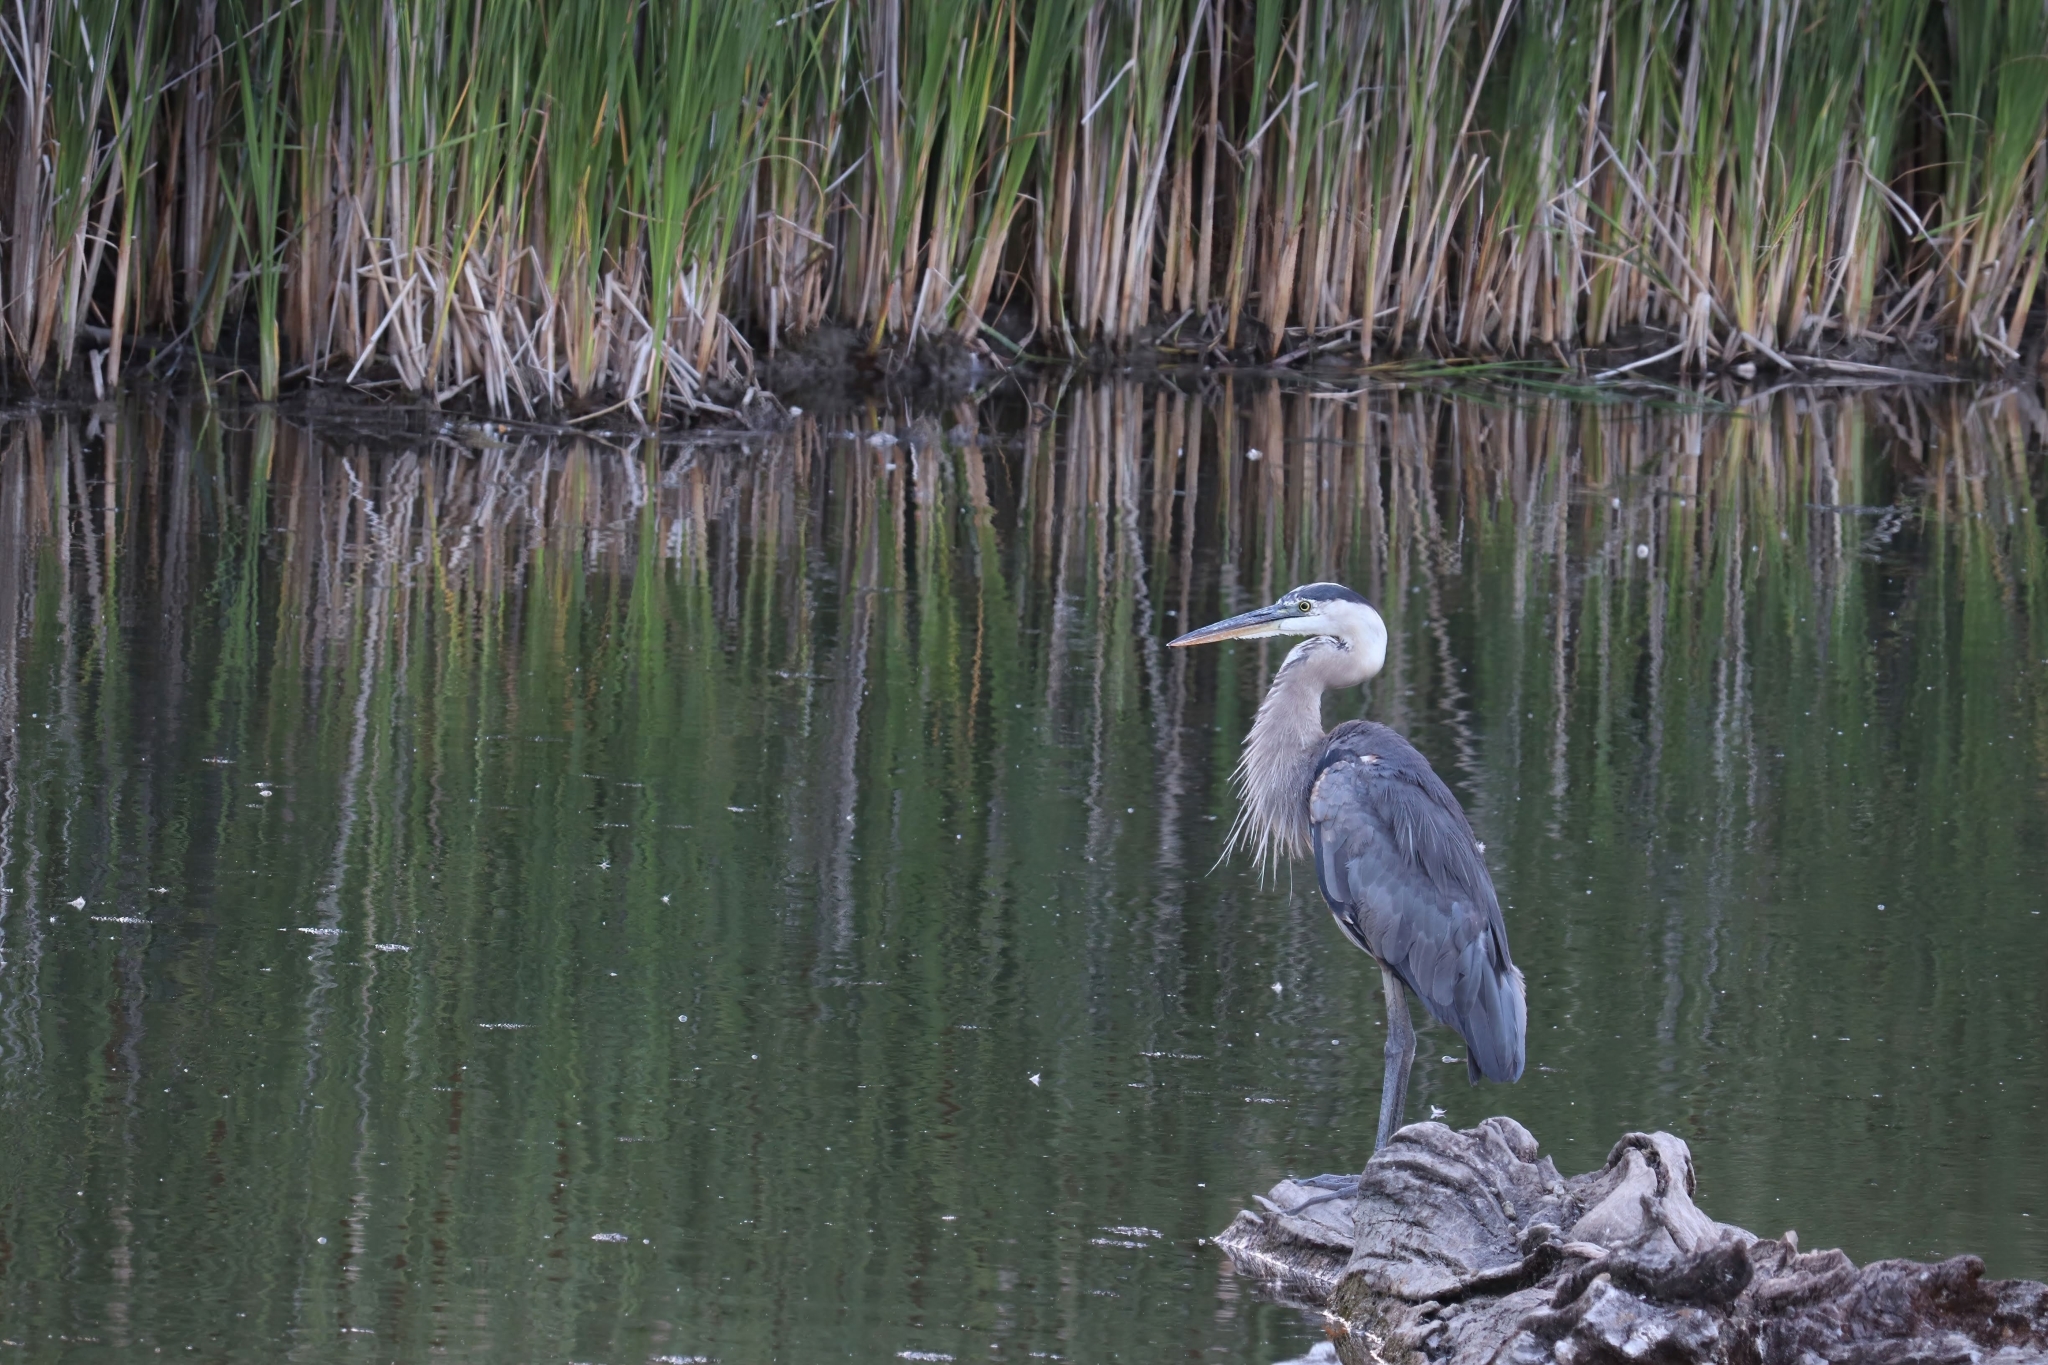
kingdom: Animalia
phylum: Chordata
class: Aves
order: Pelecaniformes
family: Ardeidae
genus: Ardea
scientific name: Ardea herodias
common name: Great blue heron
